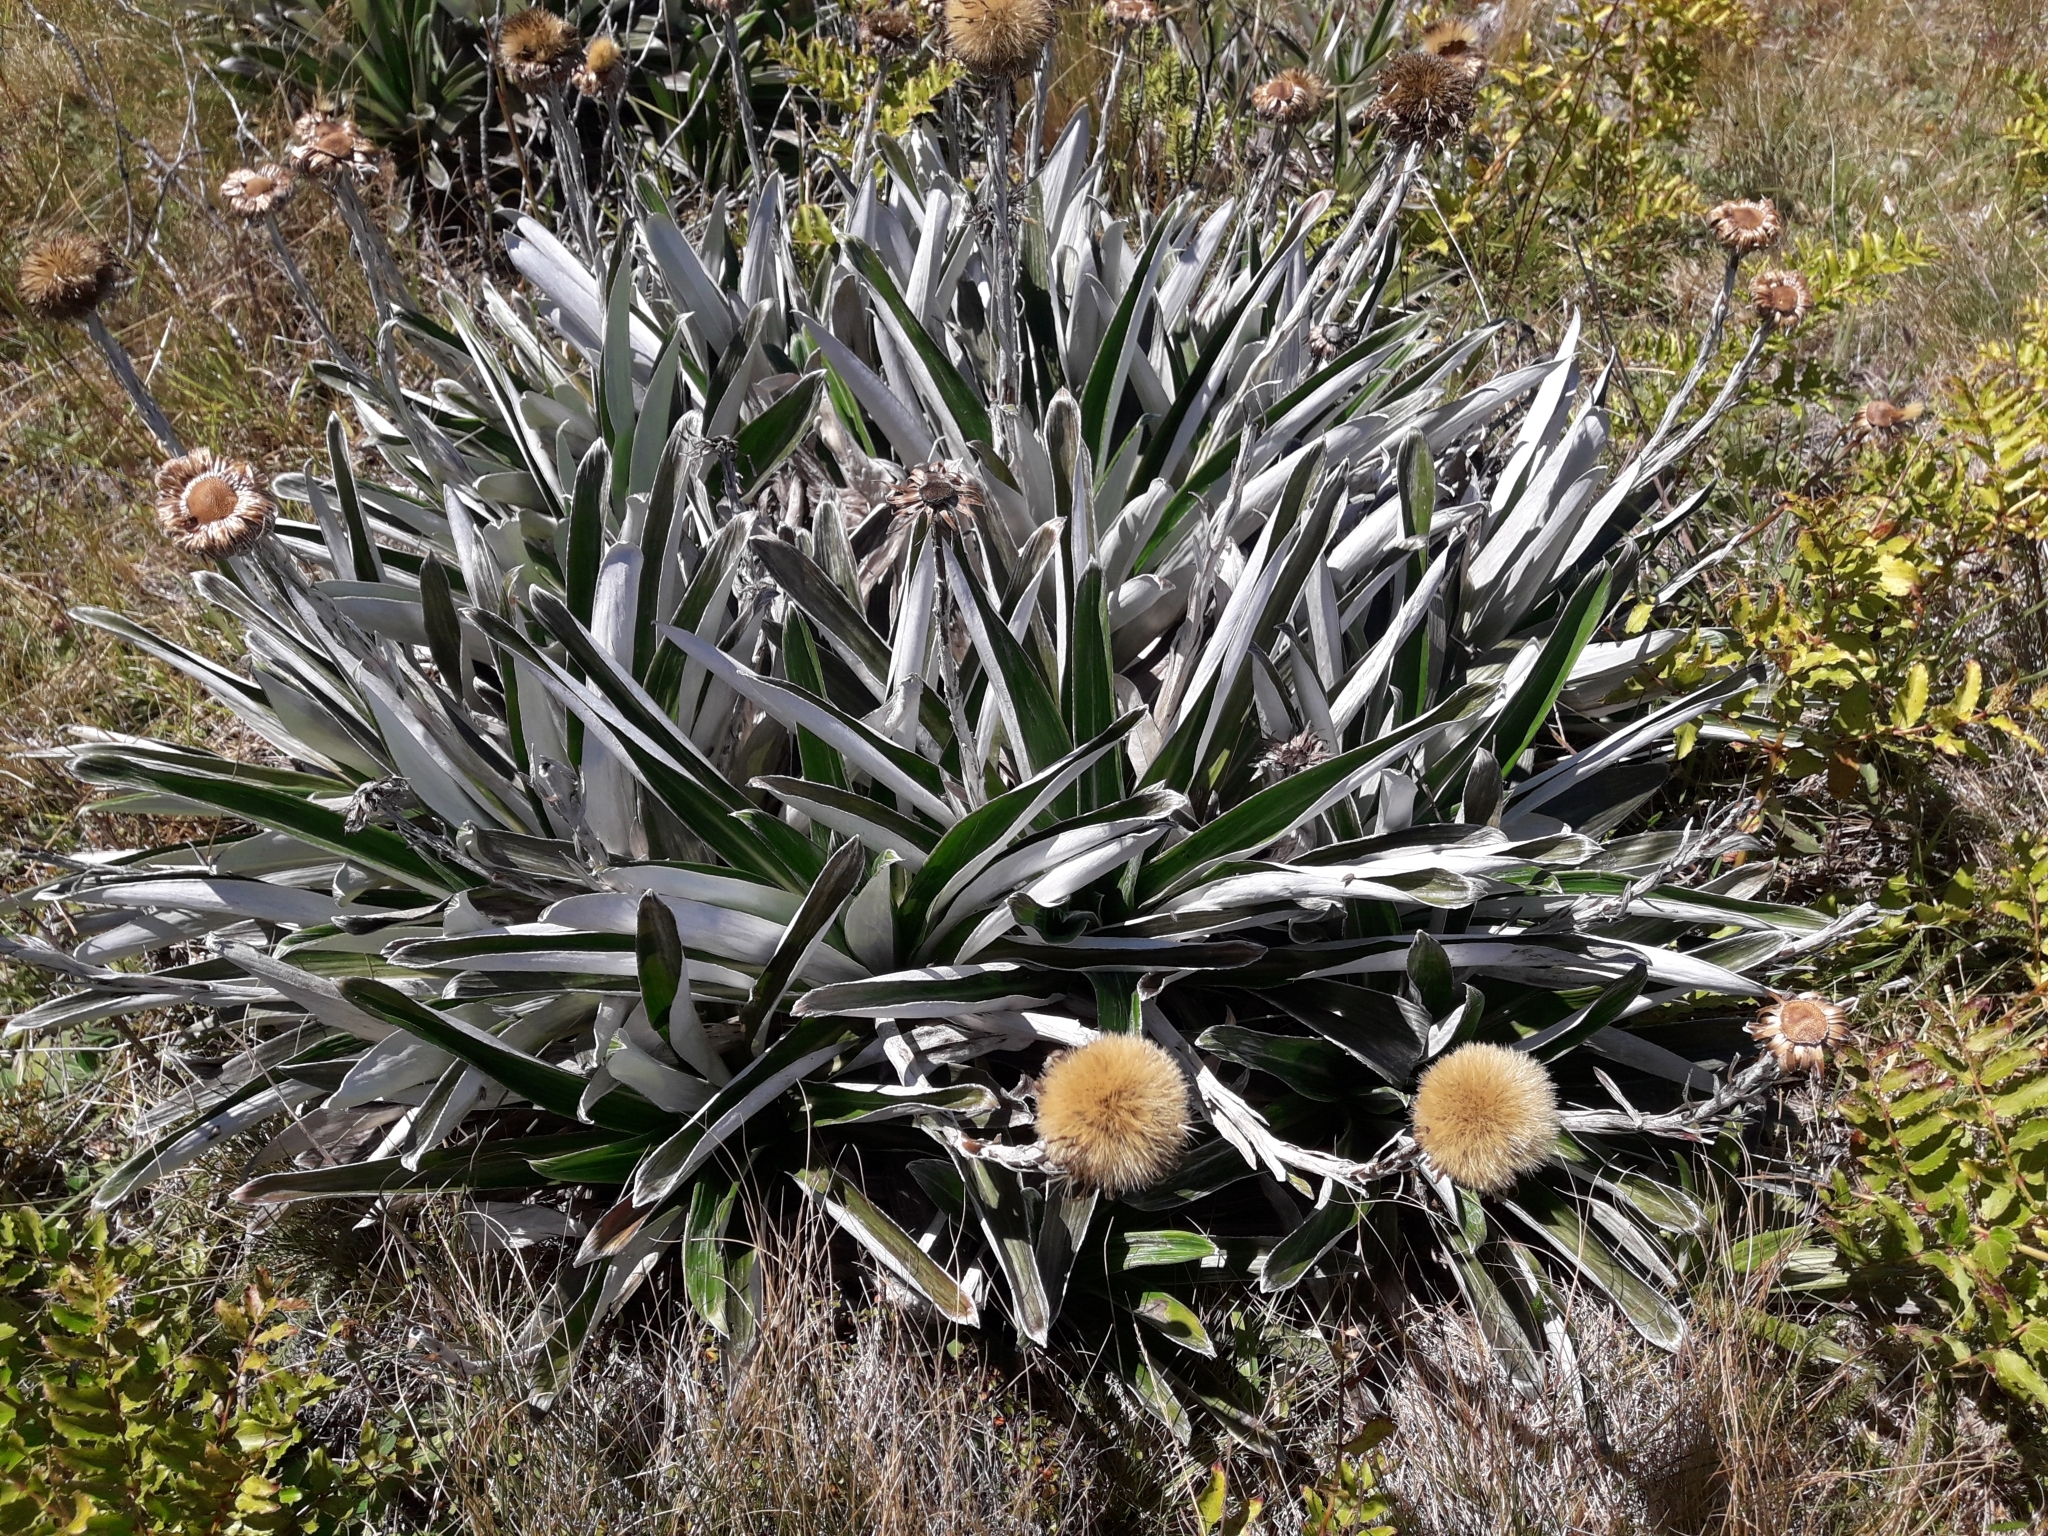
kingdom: Plantae
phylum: Tracheophyta
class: Magnoliopsida
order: Asterales
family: Asteraceae
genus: Celmisia
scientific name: Celmisia monroi
